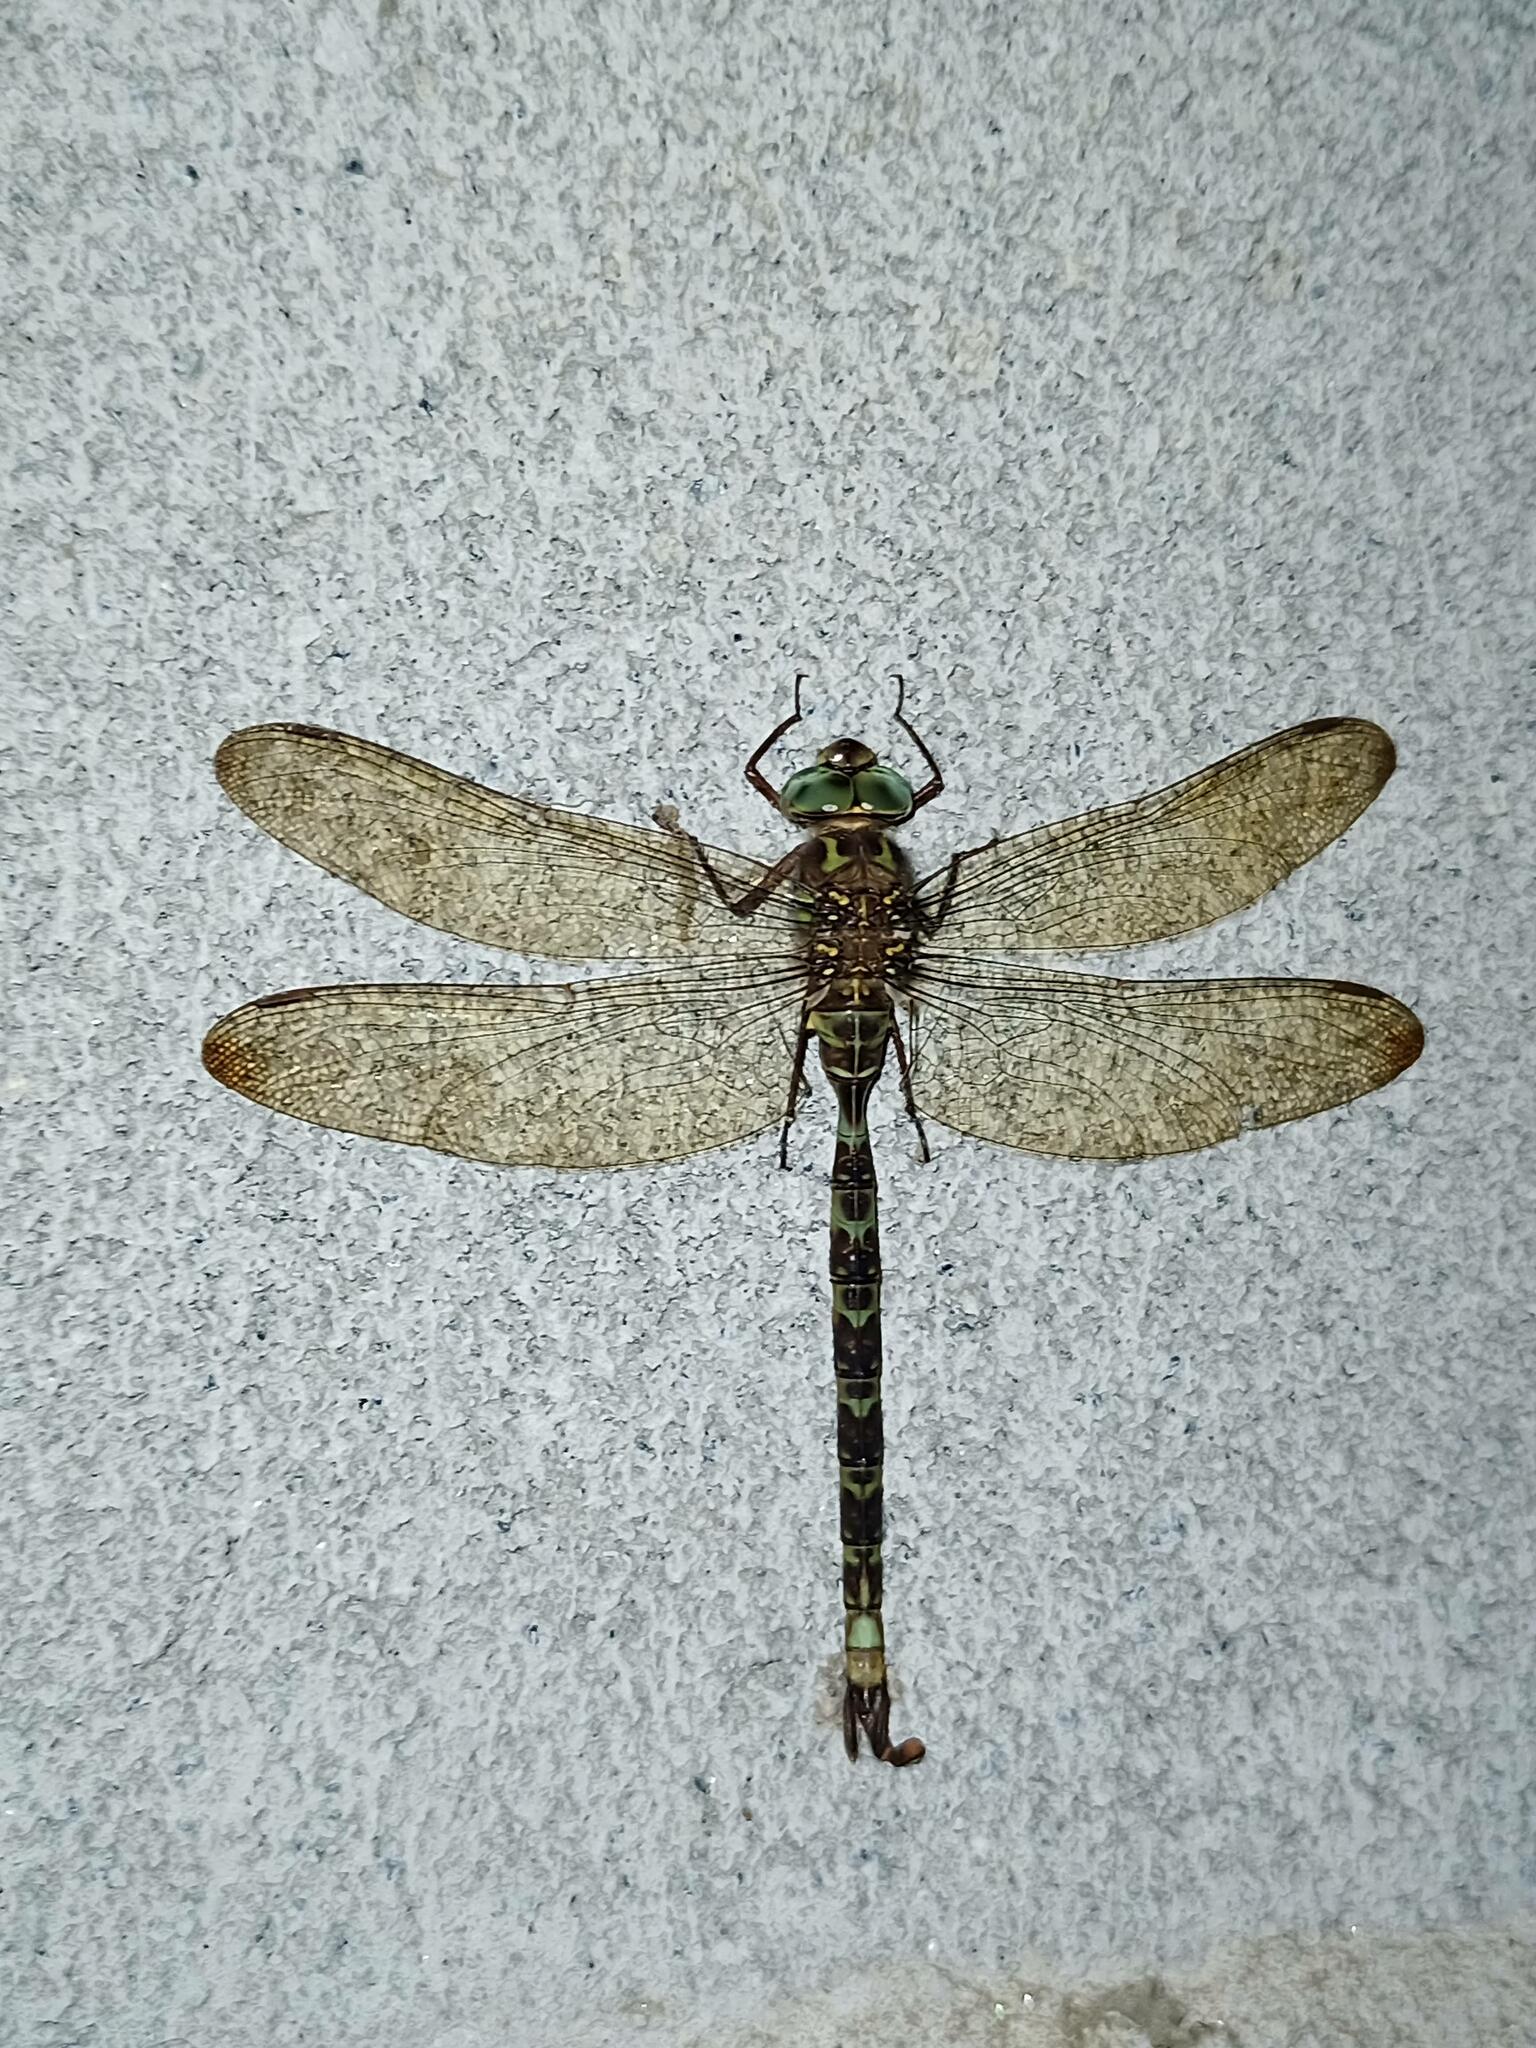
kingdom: Animalia
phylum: Arthropoda
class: Insecta
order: Odonata
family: Aeshnidae
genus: Boyeria
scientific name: Boyeria irene
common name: Western spectre
